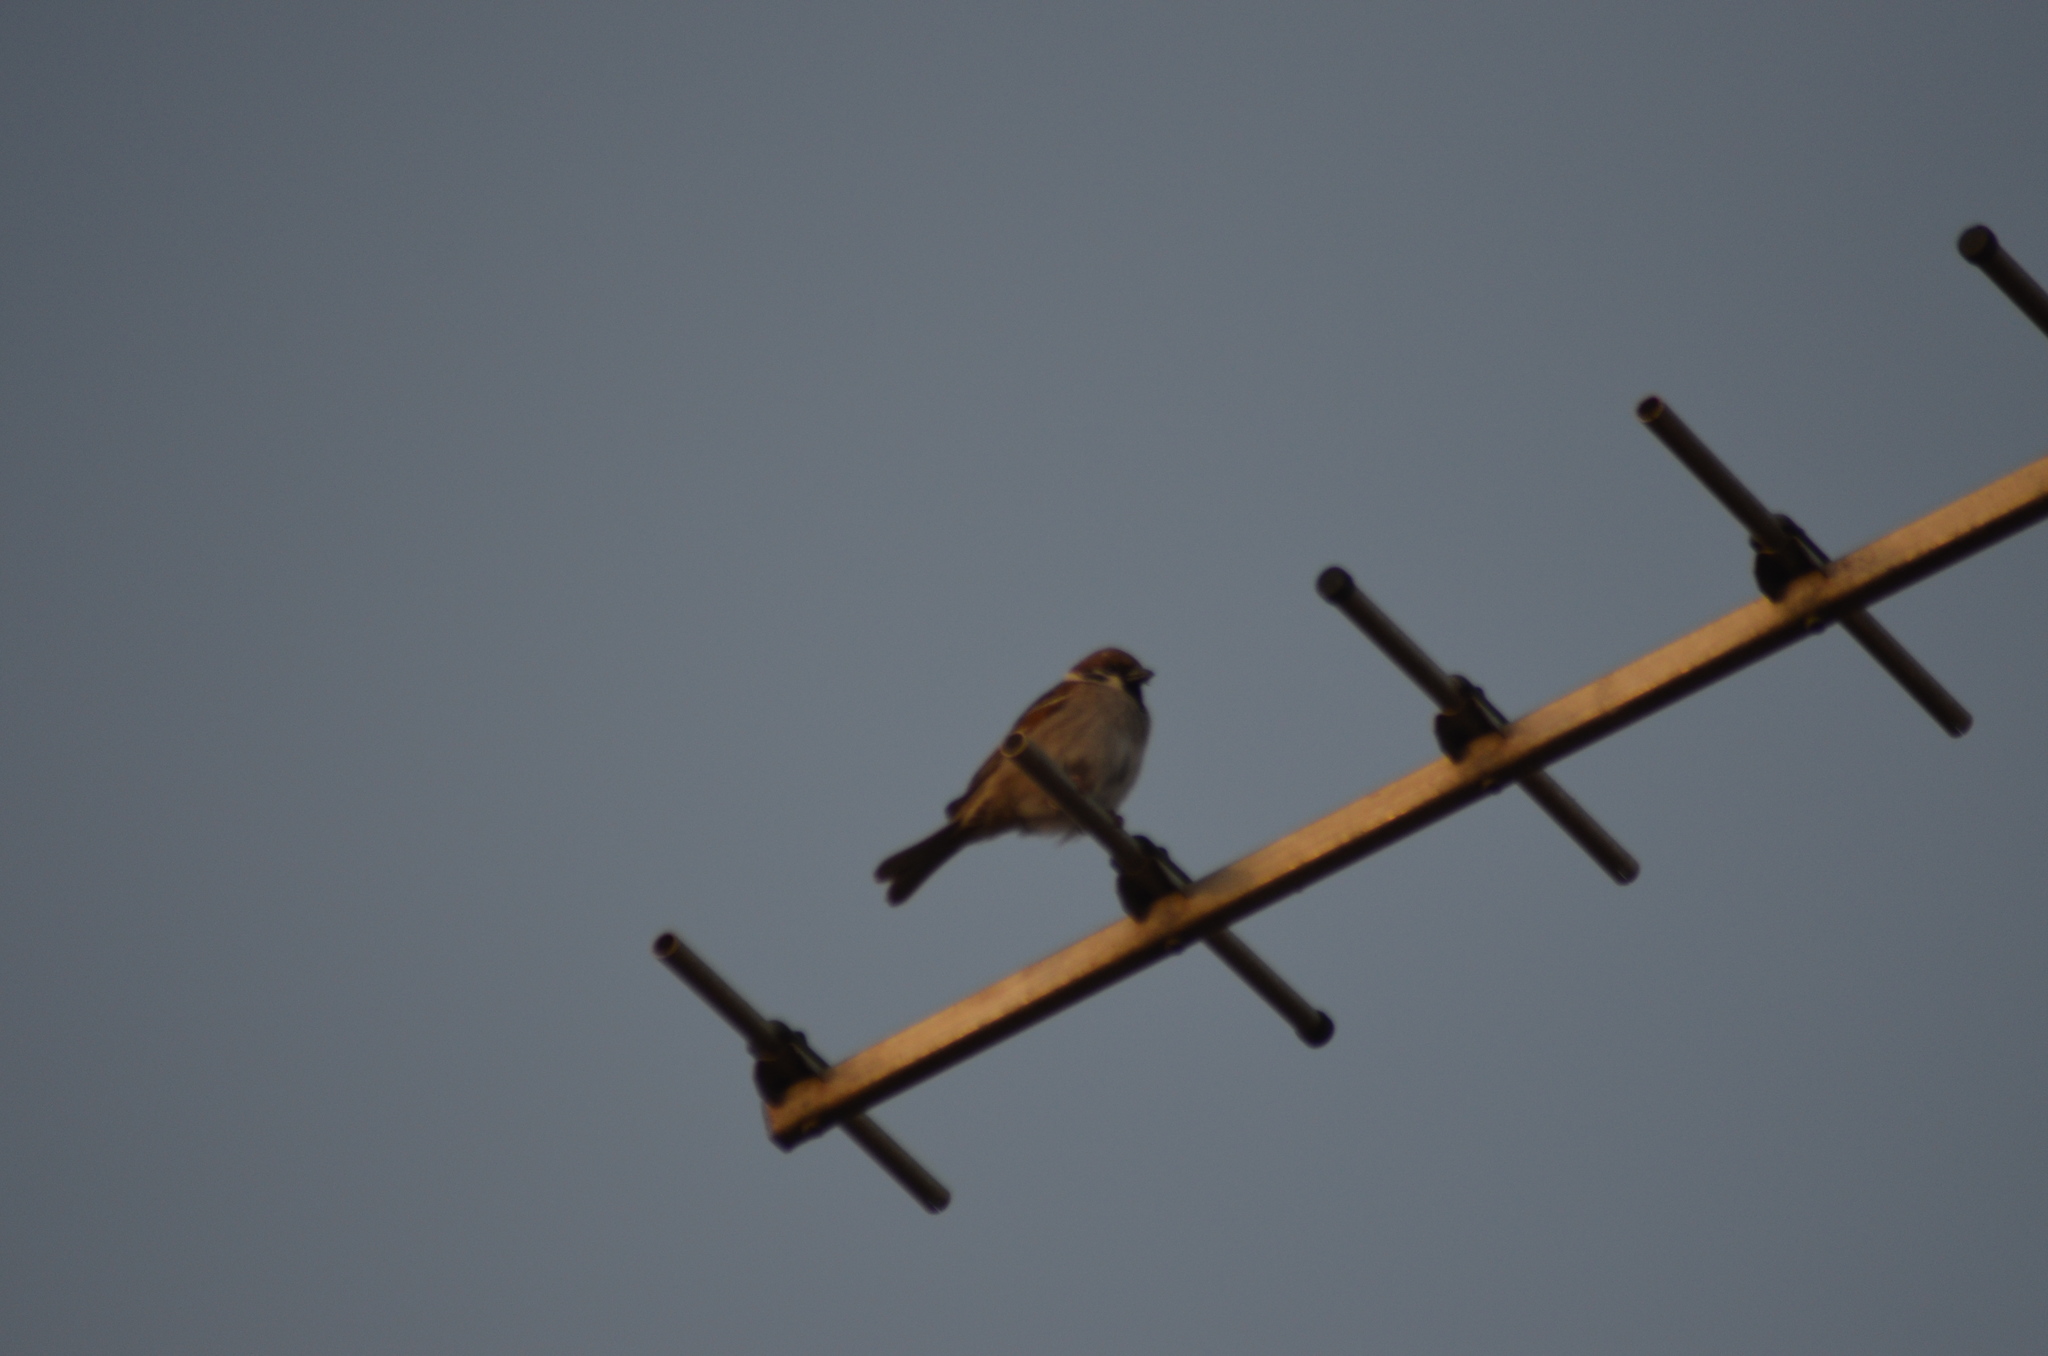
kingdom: Animalia
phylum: Chordata
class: Aves
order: Passeriformes
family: Passeridae
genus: Passer
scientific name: Passer montanus
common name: Eurasian tree sparrow
